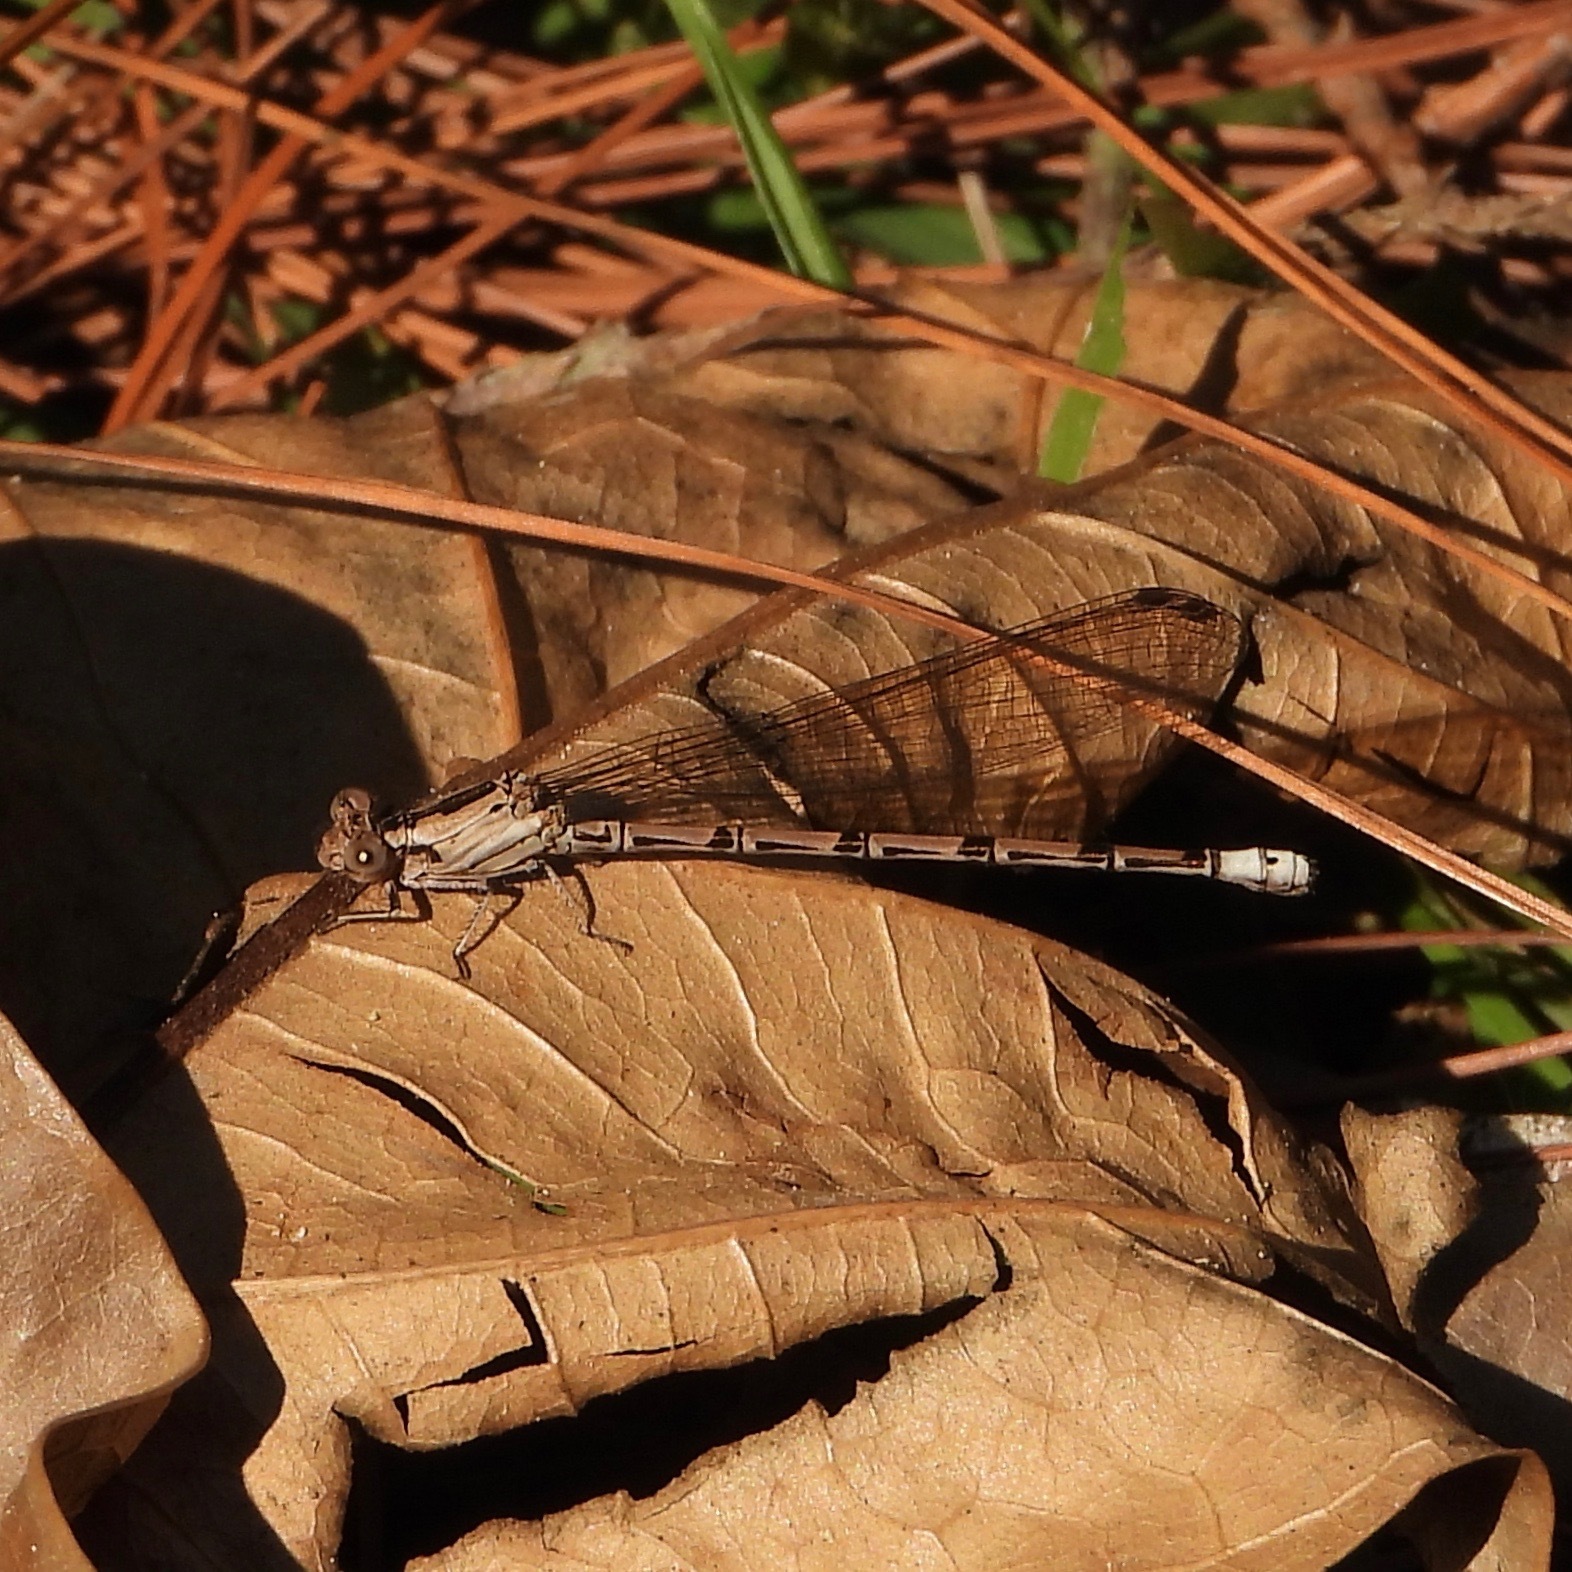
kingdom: Animalia
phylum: Arthropoda
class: Insecta
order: Odonata
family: Coenagrionidae
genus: Argia
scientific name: Argia elongata
